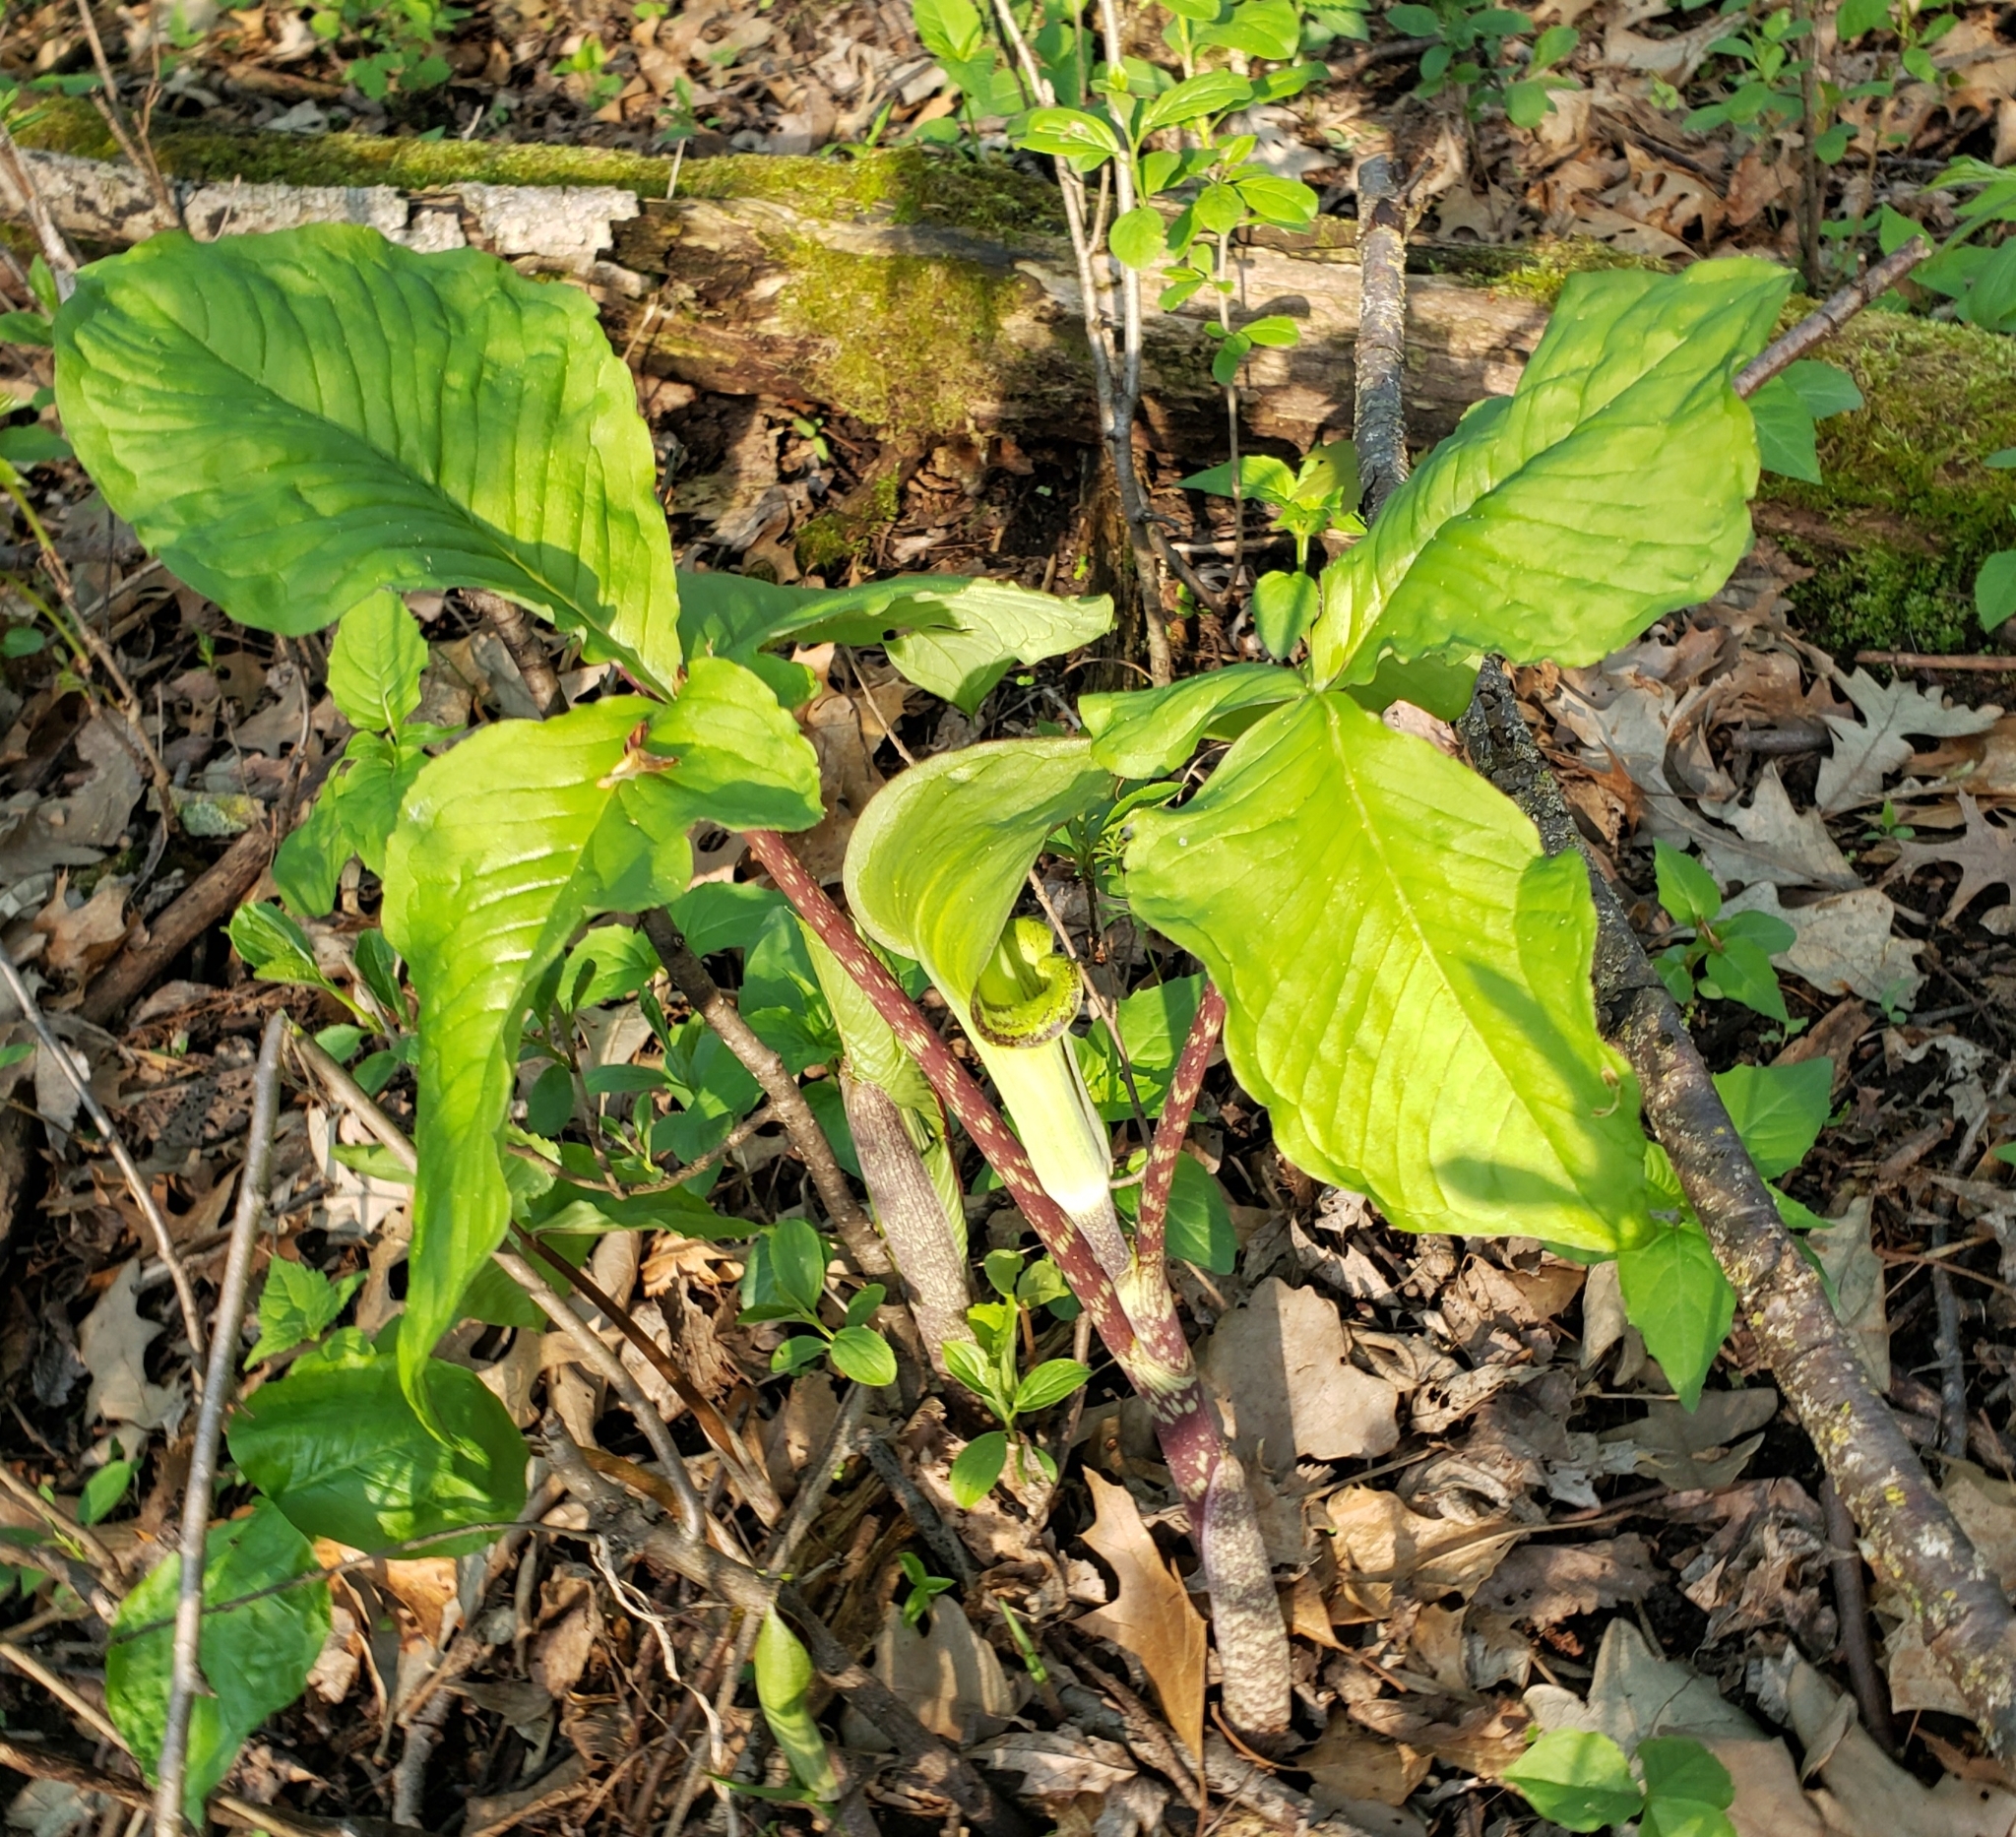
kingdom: Plantae
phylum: Tracheophyta
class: Liliopsida
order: Alismatales
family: Araceae
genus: Arisaema
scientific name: Arisaema triphyllum
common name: Jack-in-the-pulpit
